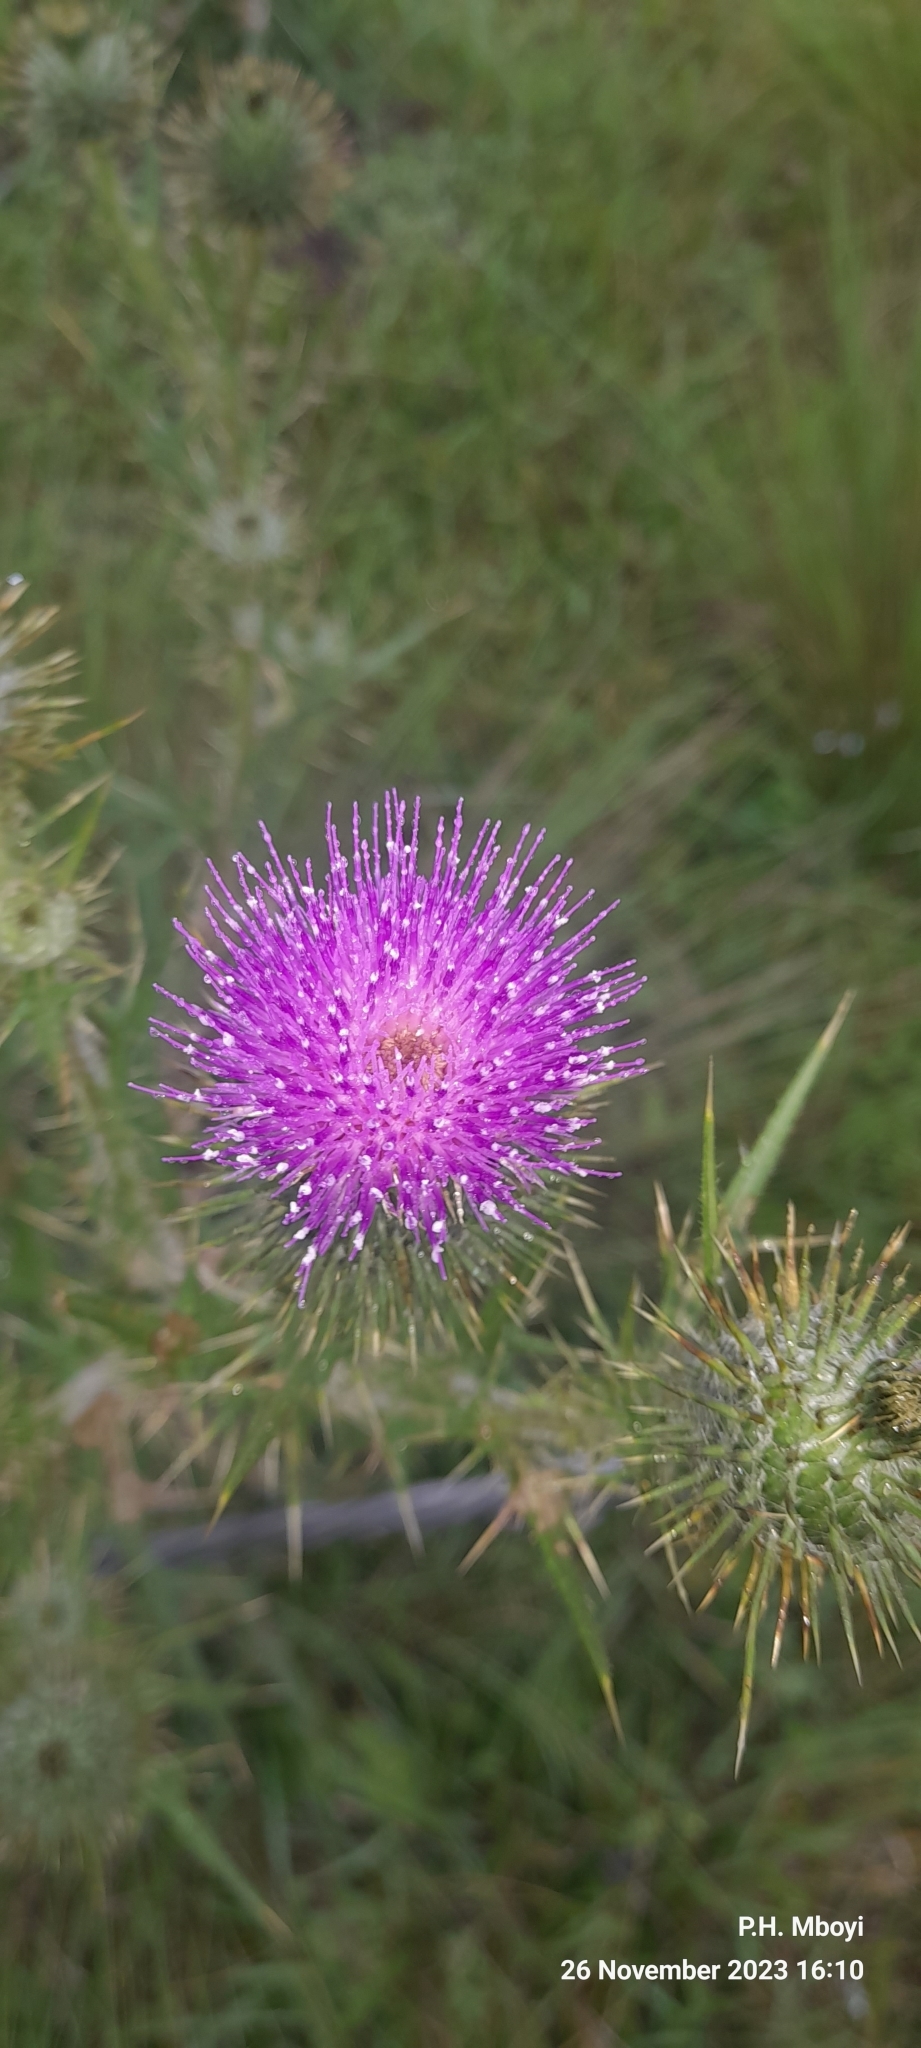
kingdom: Plantae
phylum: Tracheophyta
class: Magnoliopsida
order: Asterales
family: Asteraceae
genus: Cirsium
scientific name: Cirsium vulgare
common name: Bull thistle
